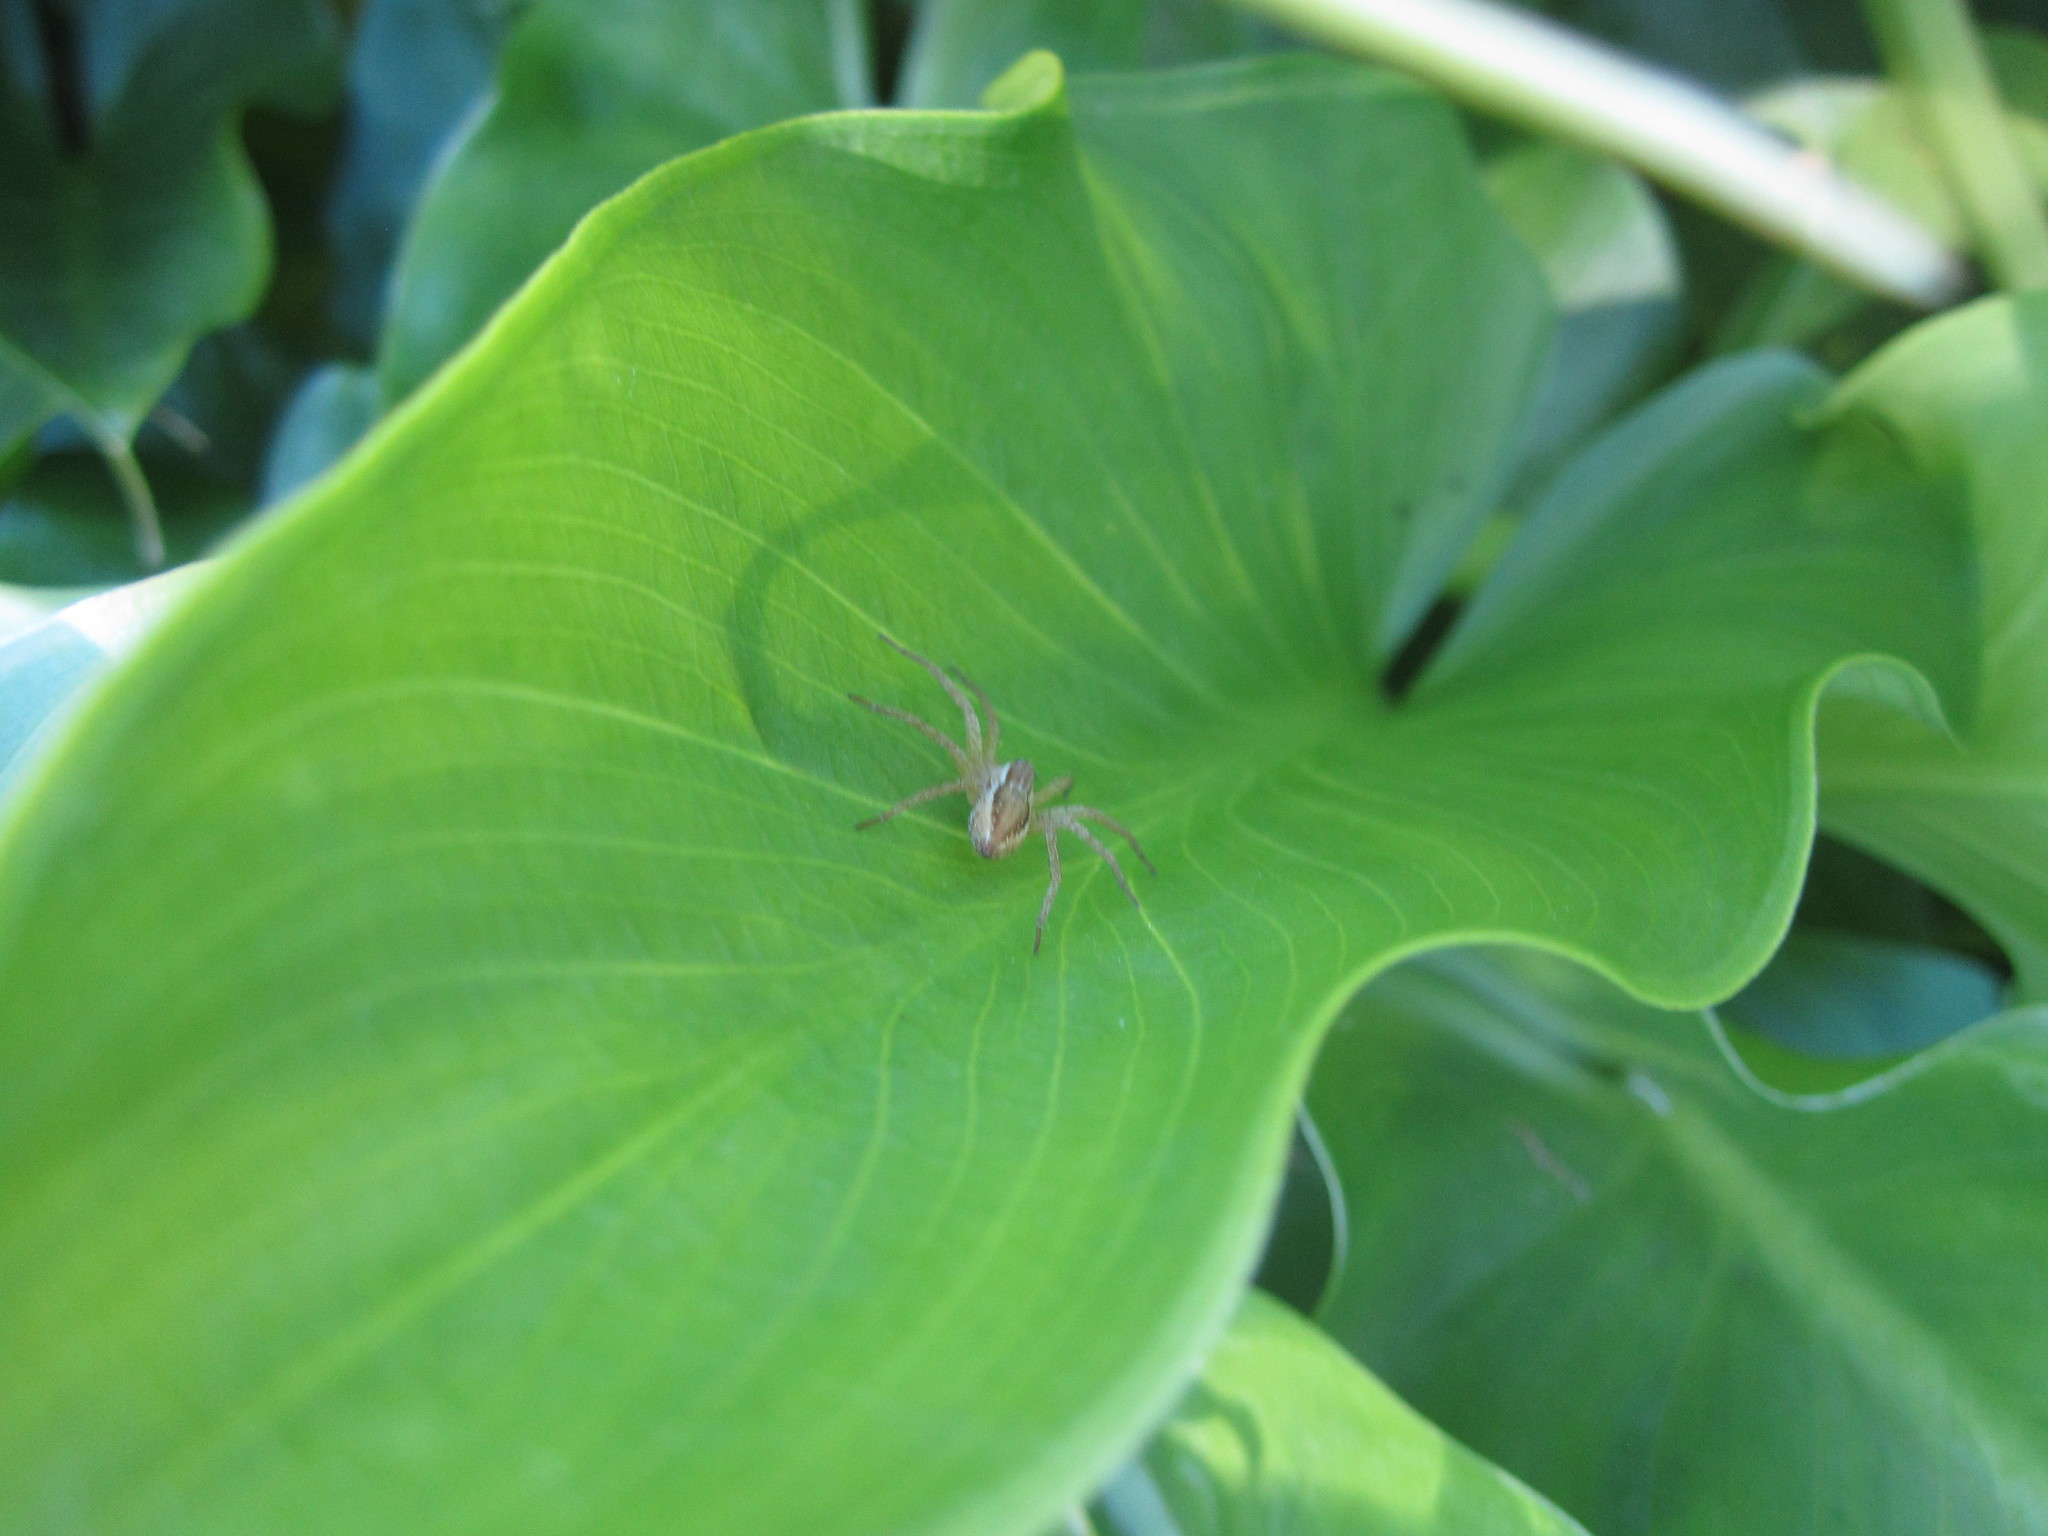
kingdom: Animalia
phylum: Arthropoda
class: Arachnida
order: Araneae
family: Pisauridae
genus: Dolomedes
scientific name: Dolomedes minor
